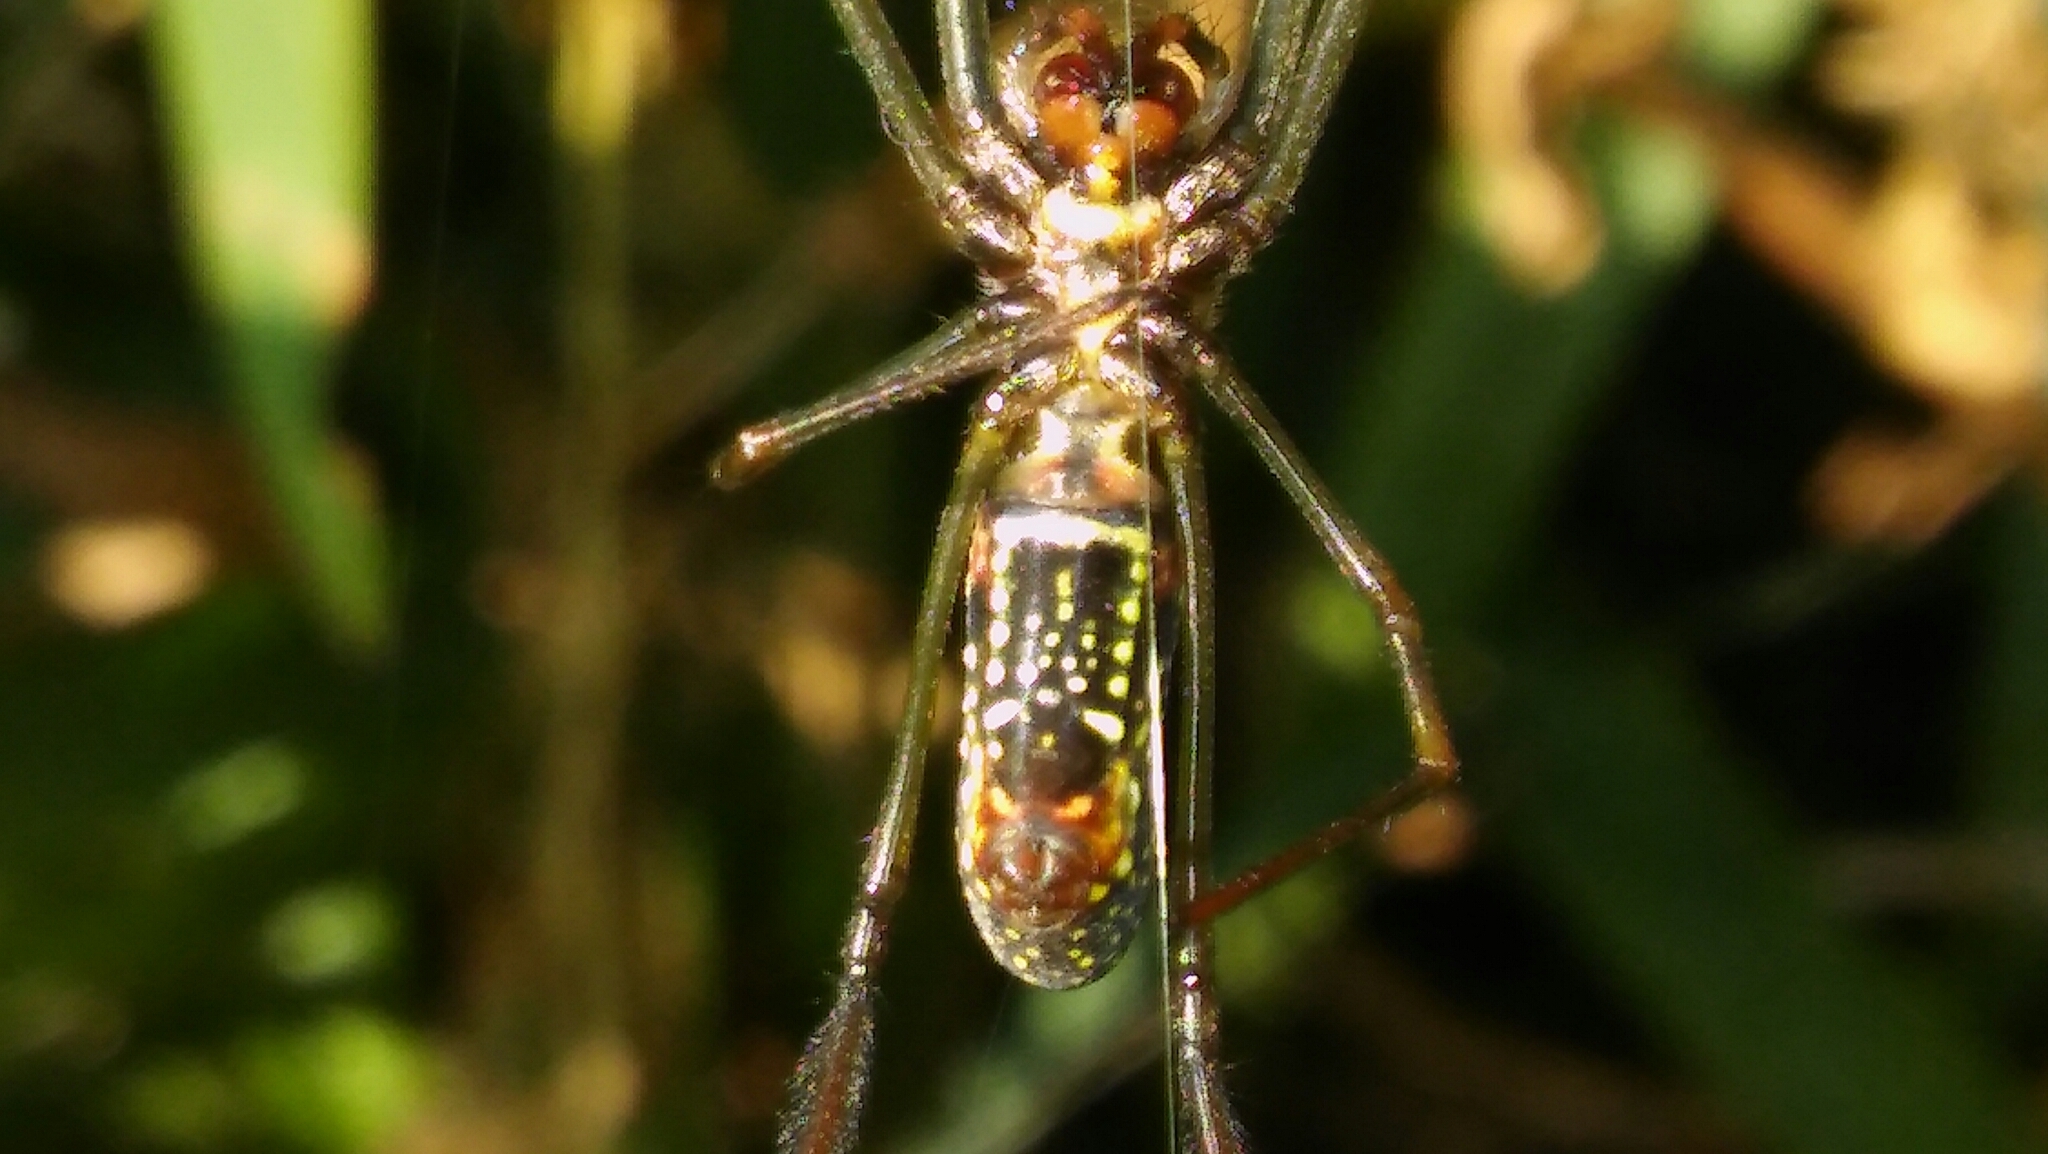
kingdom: Animalia
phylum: Arthropoda
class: Arachnida
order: Araneae
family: Araneidae
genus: Trichonephila
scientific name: Trichonephila clavipes
